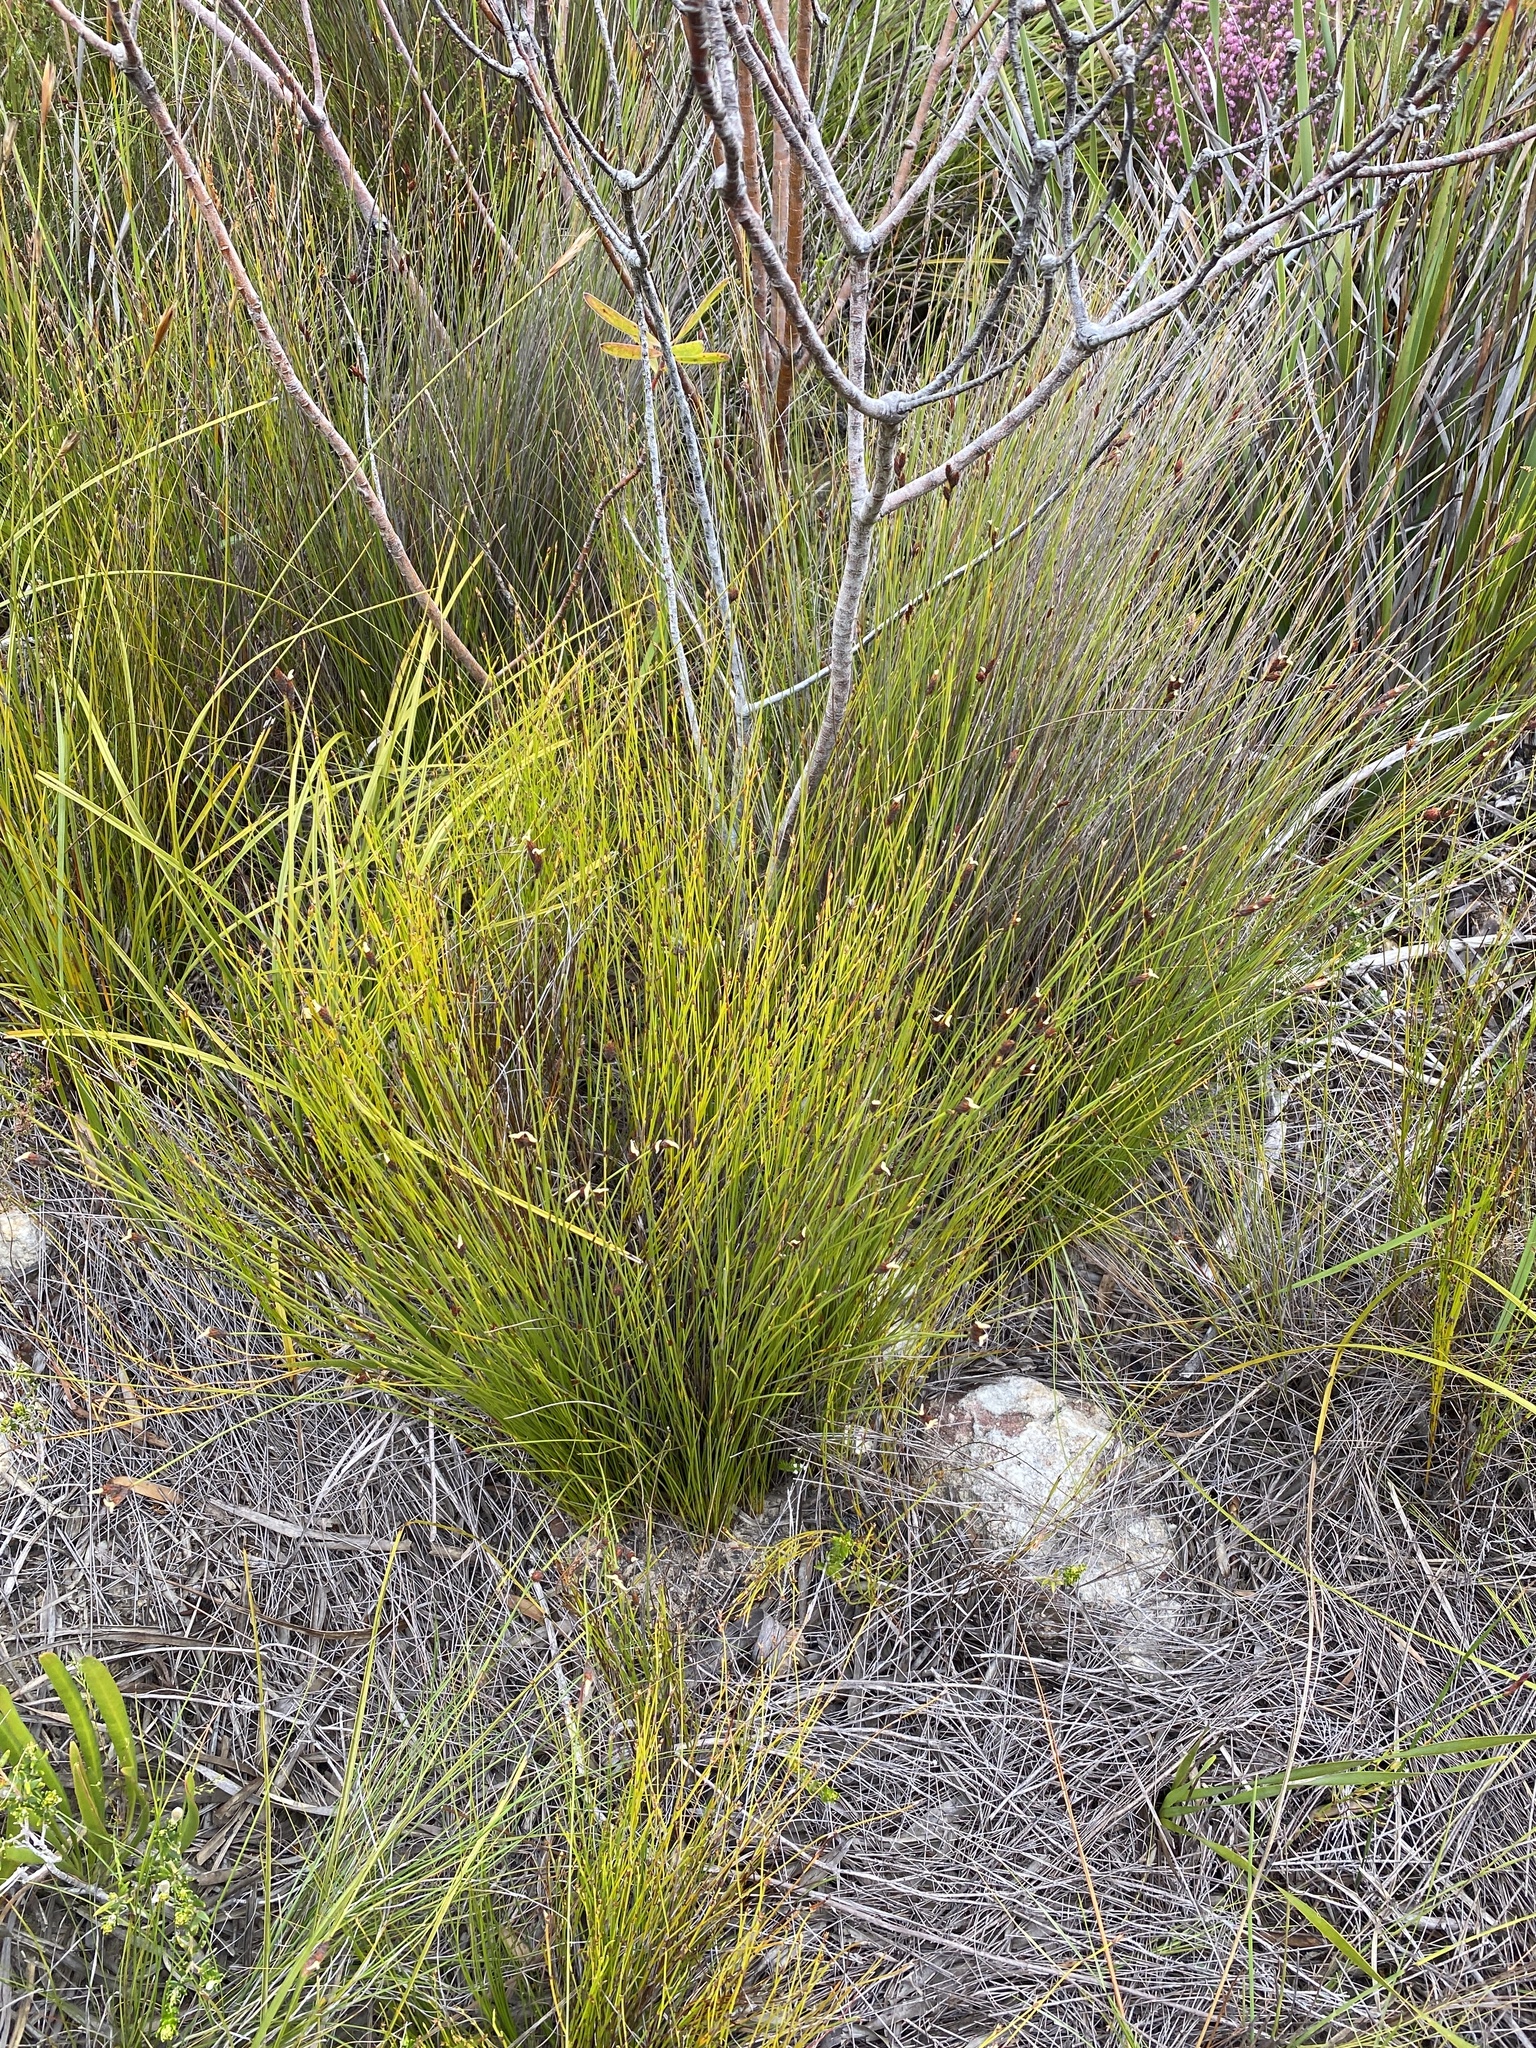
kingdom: Plantae
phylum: Tracheophyta
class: Liliopsida
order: Poales
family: Restionaceae
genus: Hypodiscus
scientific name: Hypodiscus aristatus
